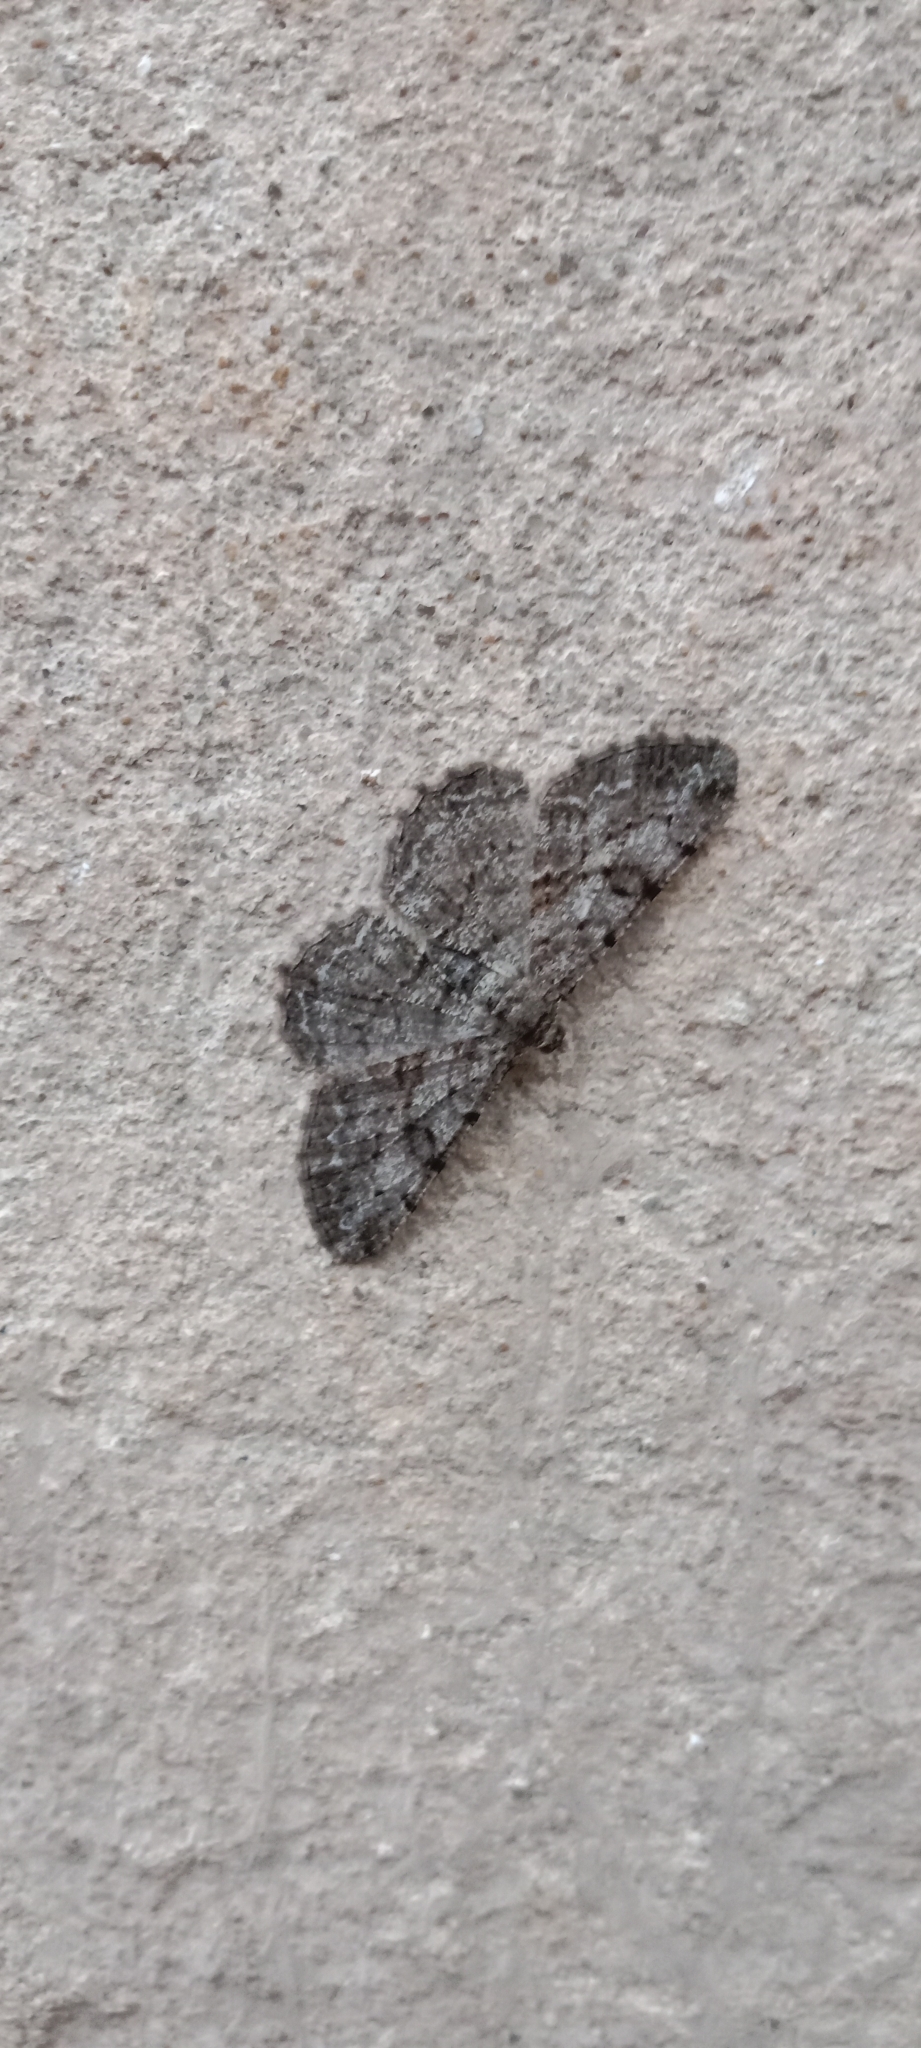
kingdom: Animalia
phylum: Arthropoda
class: Insecta
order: Lepidoptera
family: Geometridae
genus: Peribatodes
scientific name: Peribatodes rhomboidaria
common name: Willow beauty
